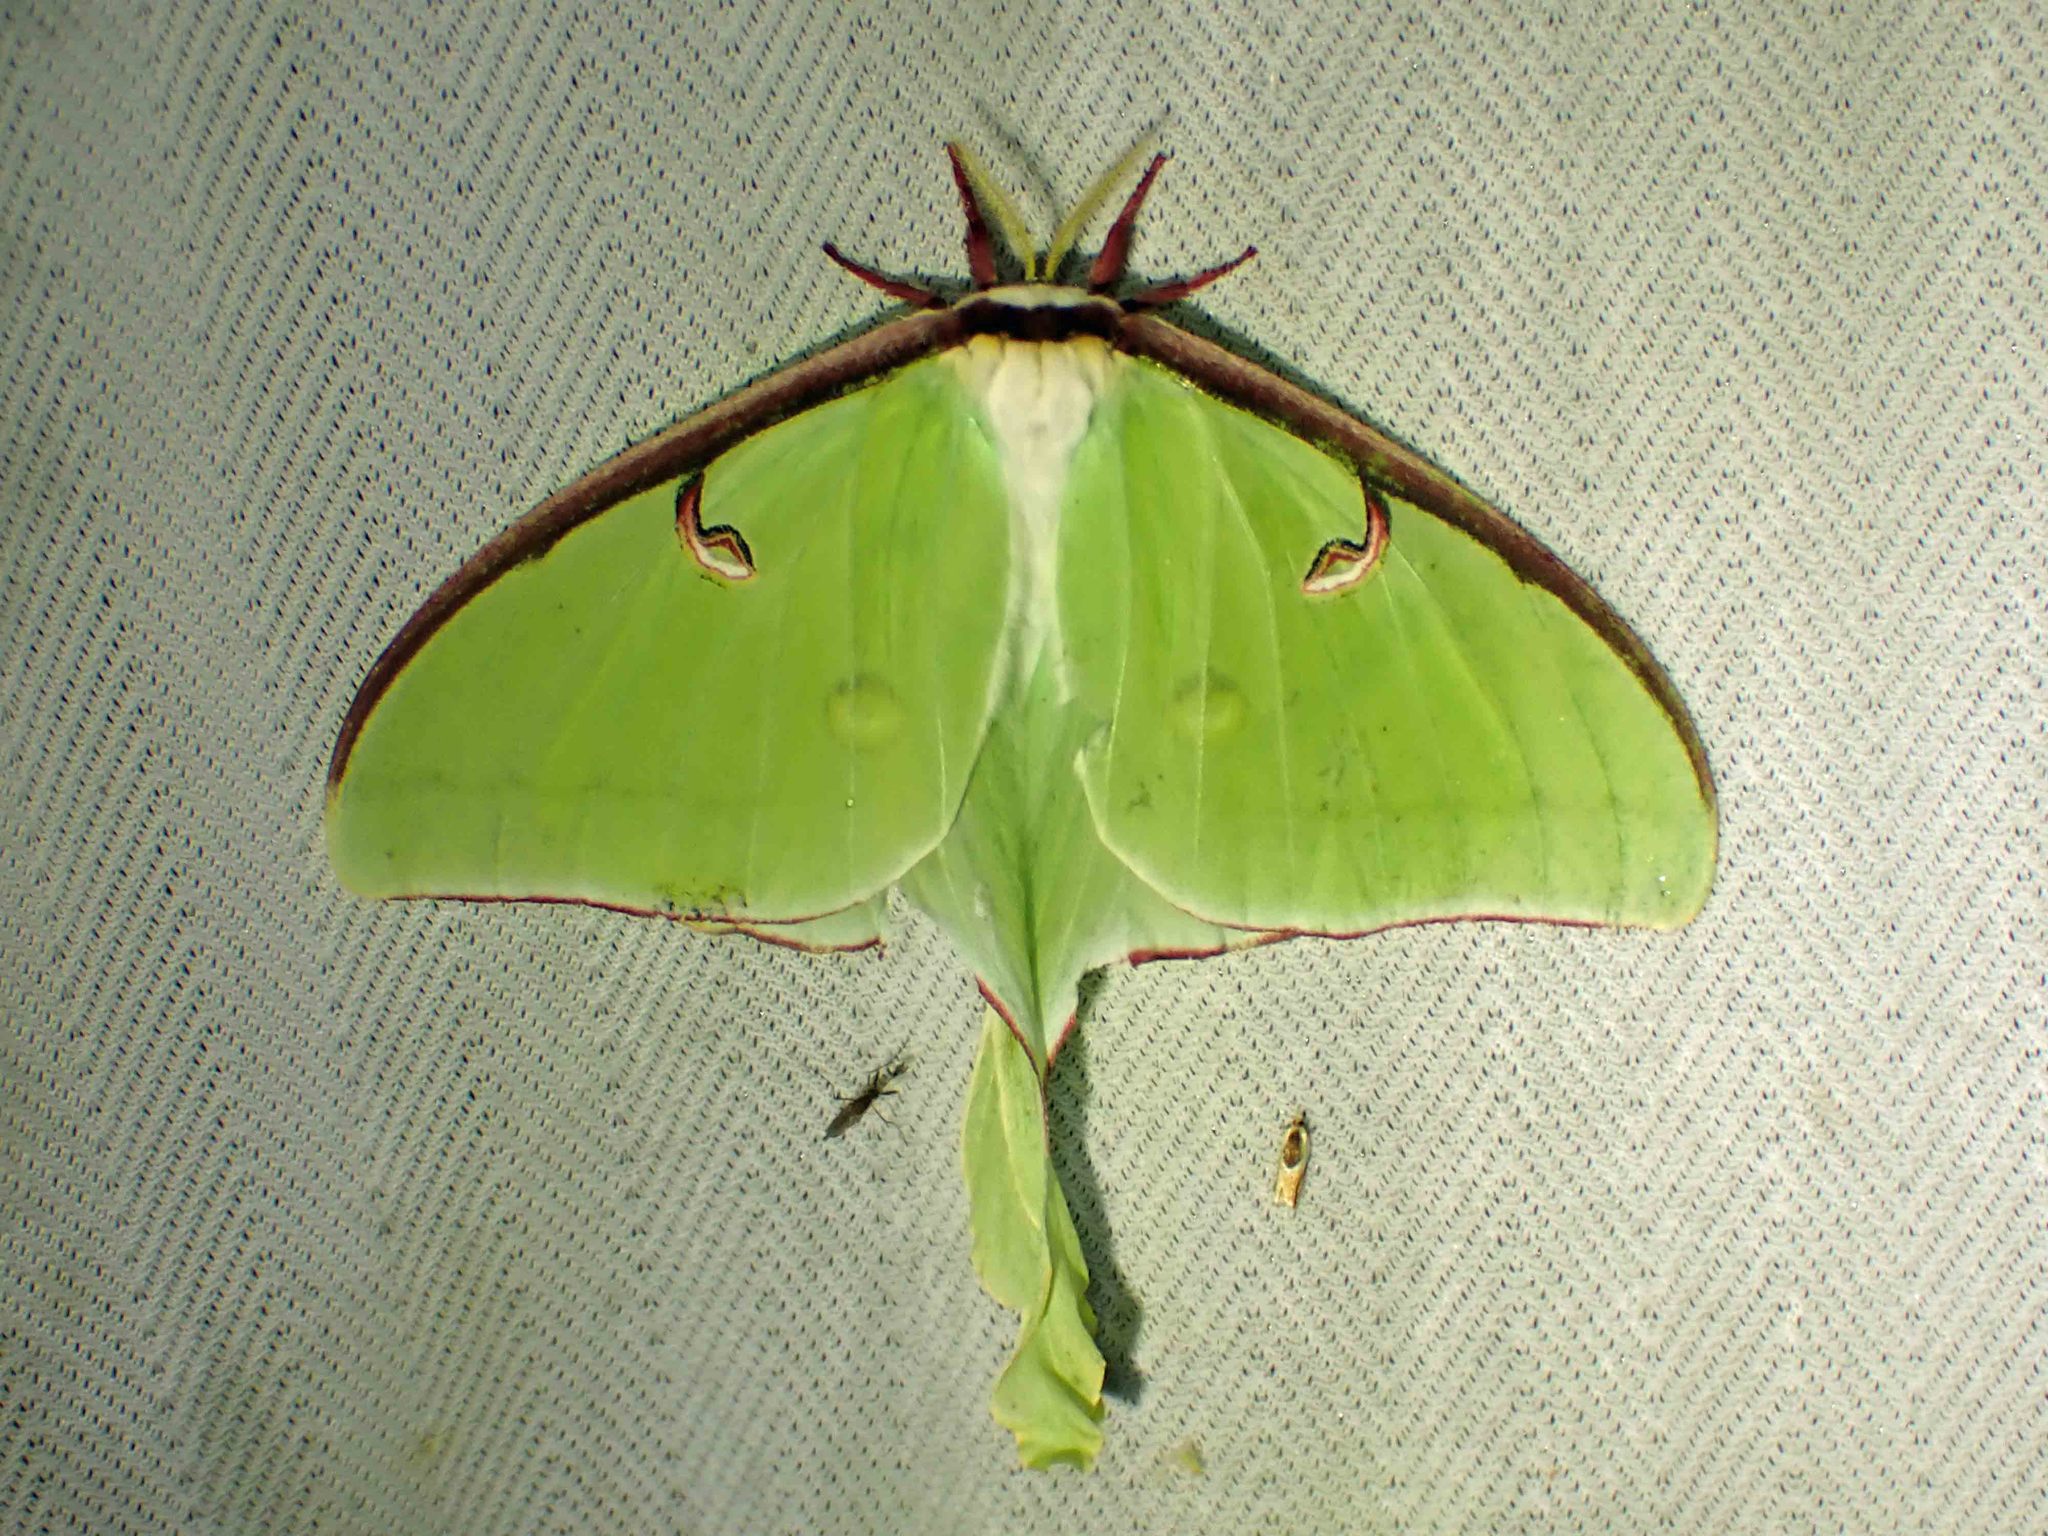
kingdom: Animalia
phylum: Arthropoda
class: Insecta
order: Lepidoptera
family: Saturniidae
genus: Actias
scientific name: Actias luna
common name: Luna moth
